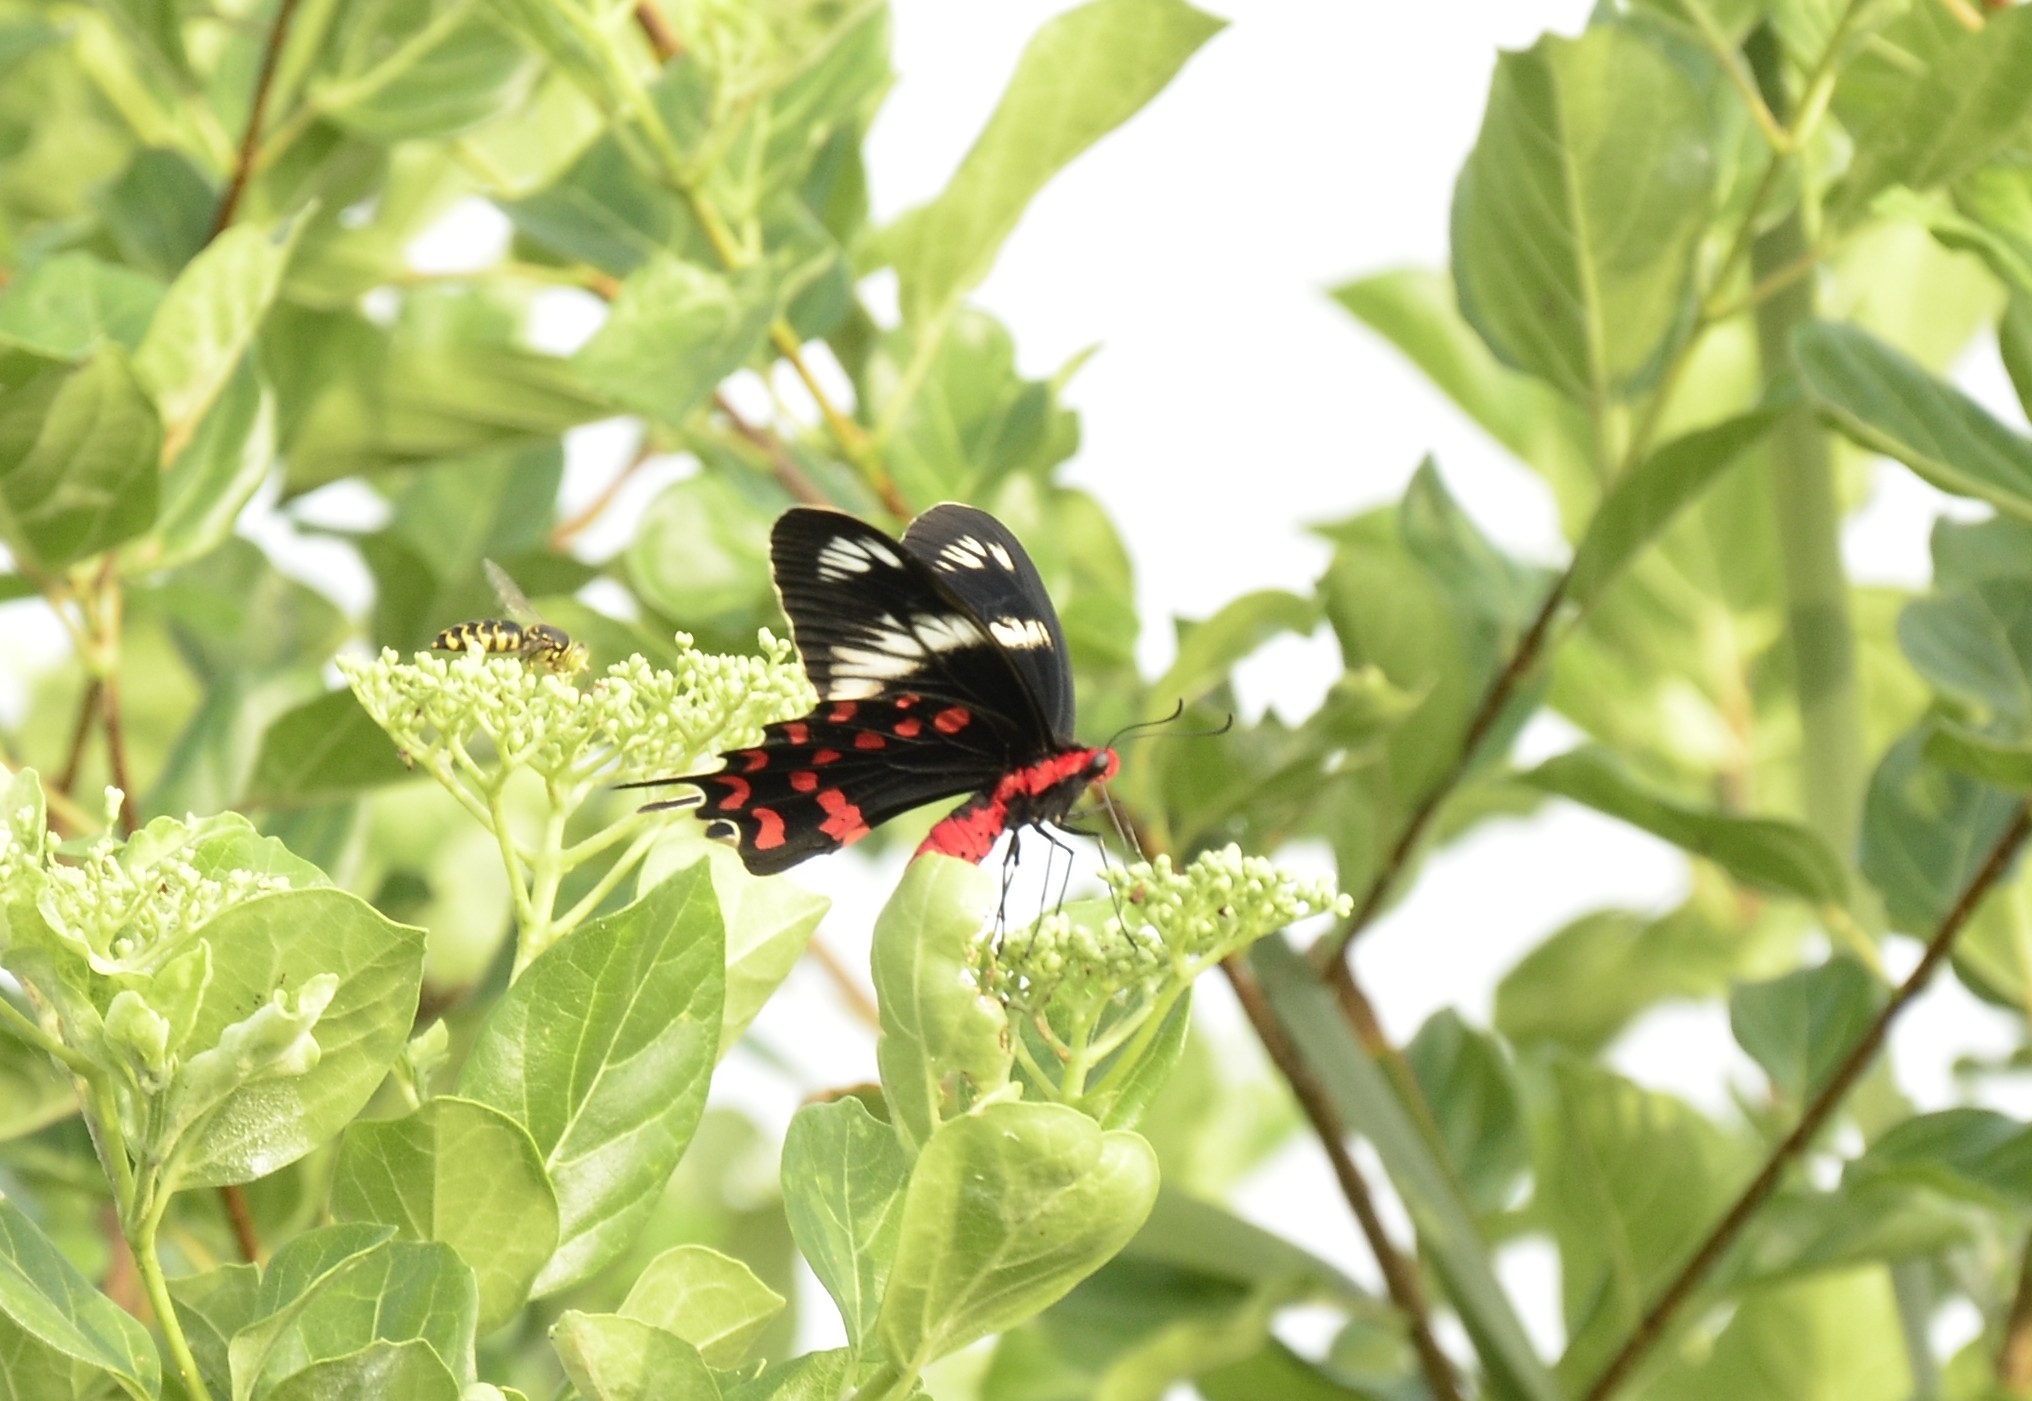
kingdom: Animalia
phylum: Arthropoda
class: Insecta
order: Lepidoptera
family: Papilionidae
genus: Pachliopta
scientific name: Pachliopta hector
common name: Crimson rose
